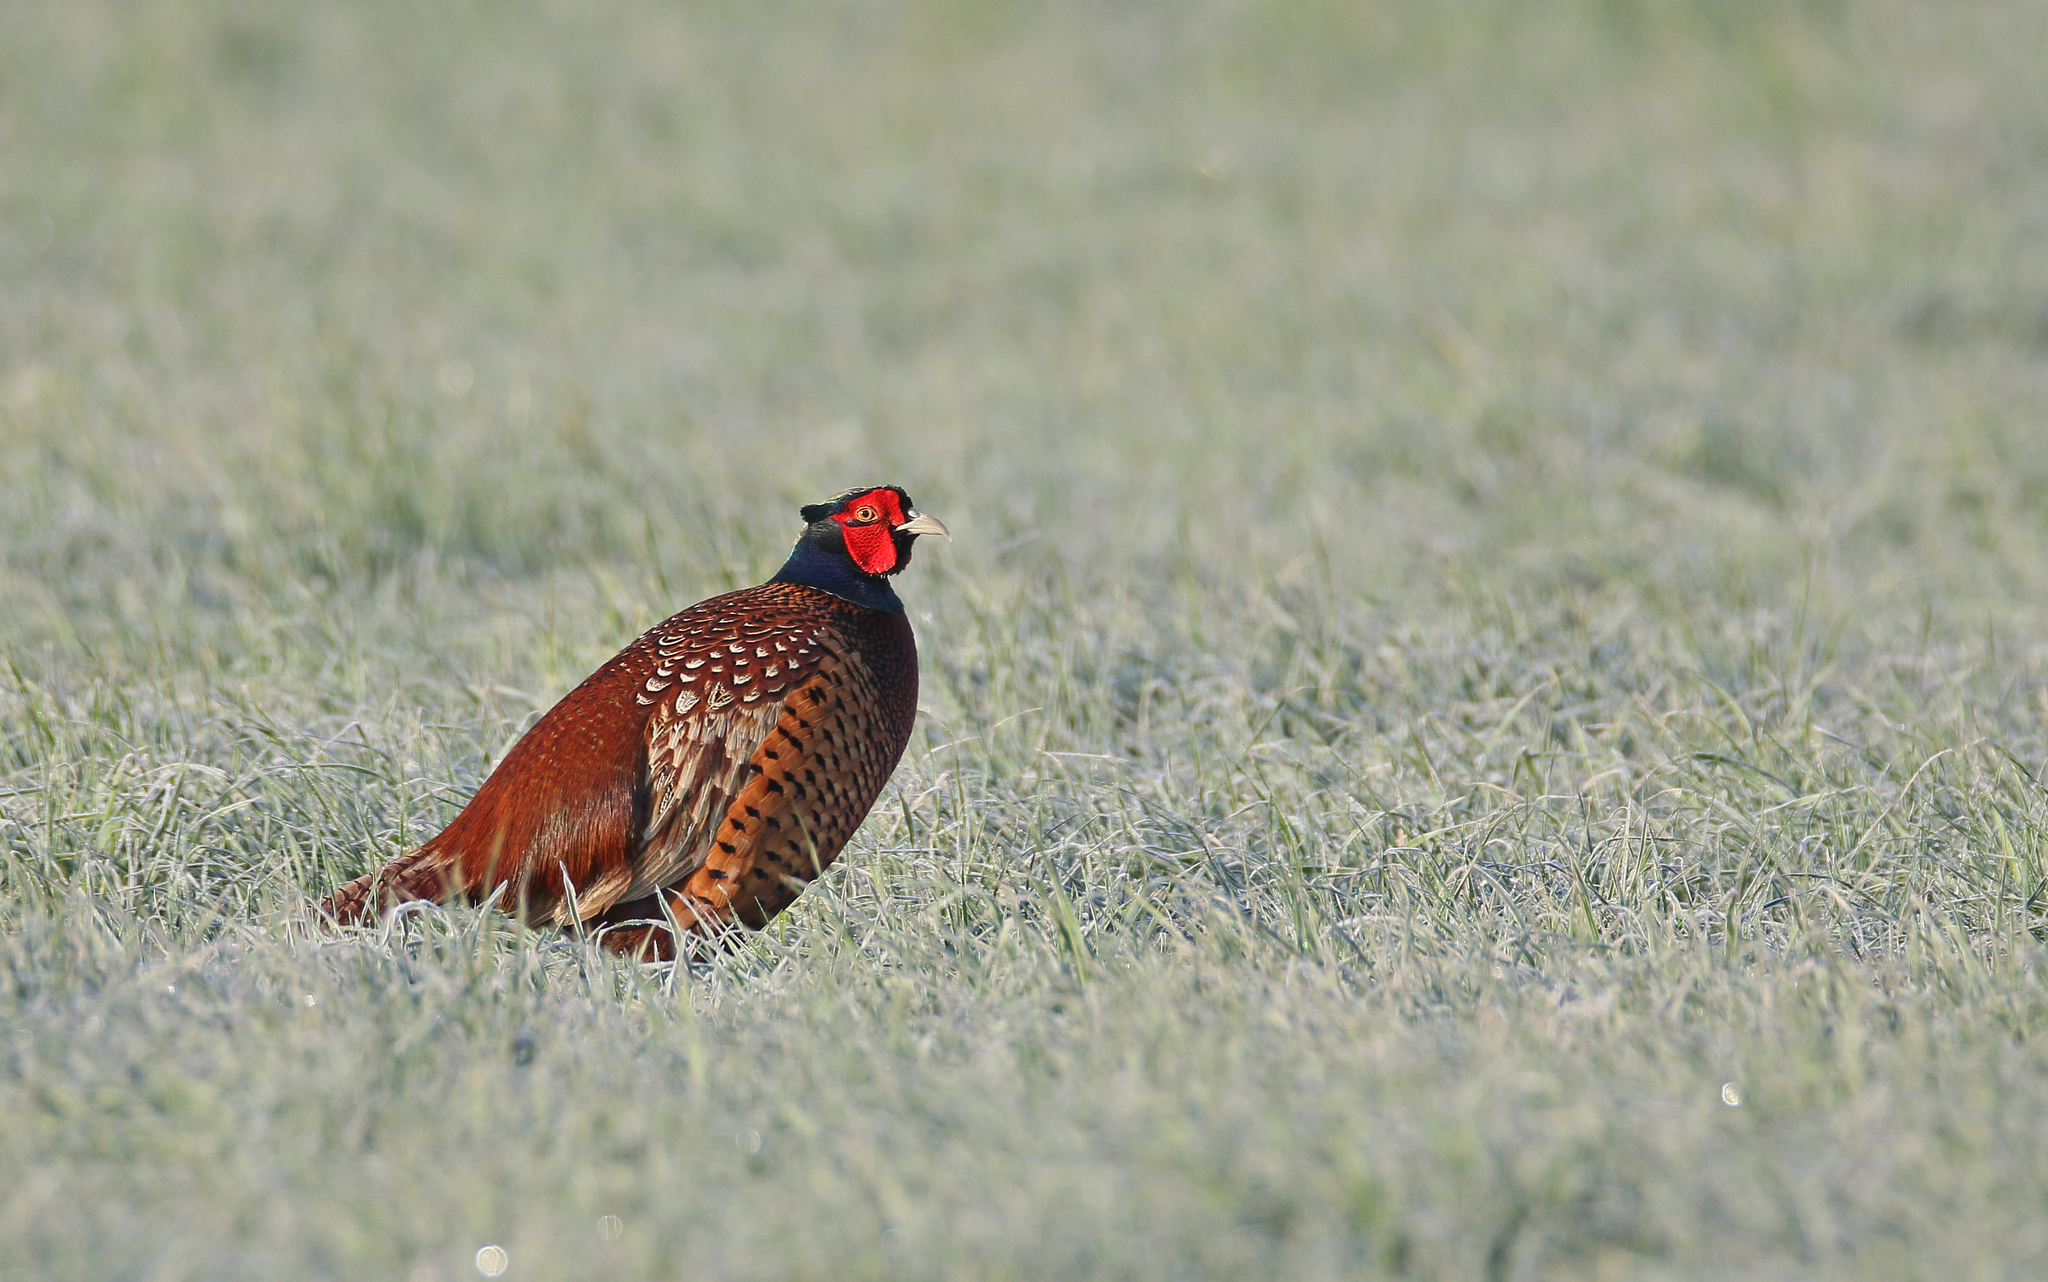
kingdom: Animalia
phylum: Chordata
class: Aves
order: Galliformes
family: Phasianidae
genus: Phasianus
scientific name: Phasianus colchicus
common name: Common pheasant
